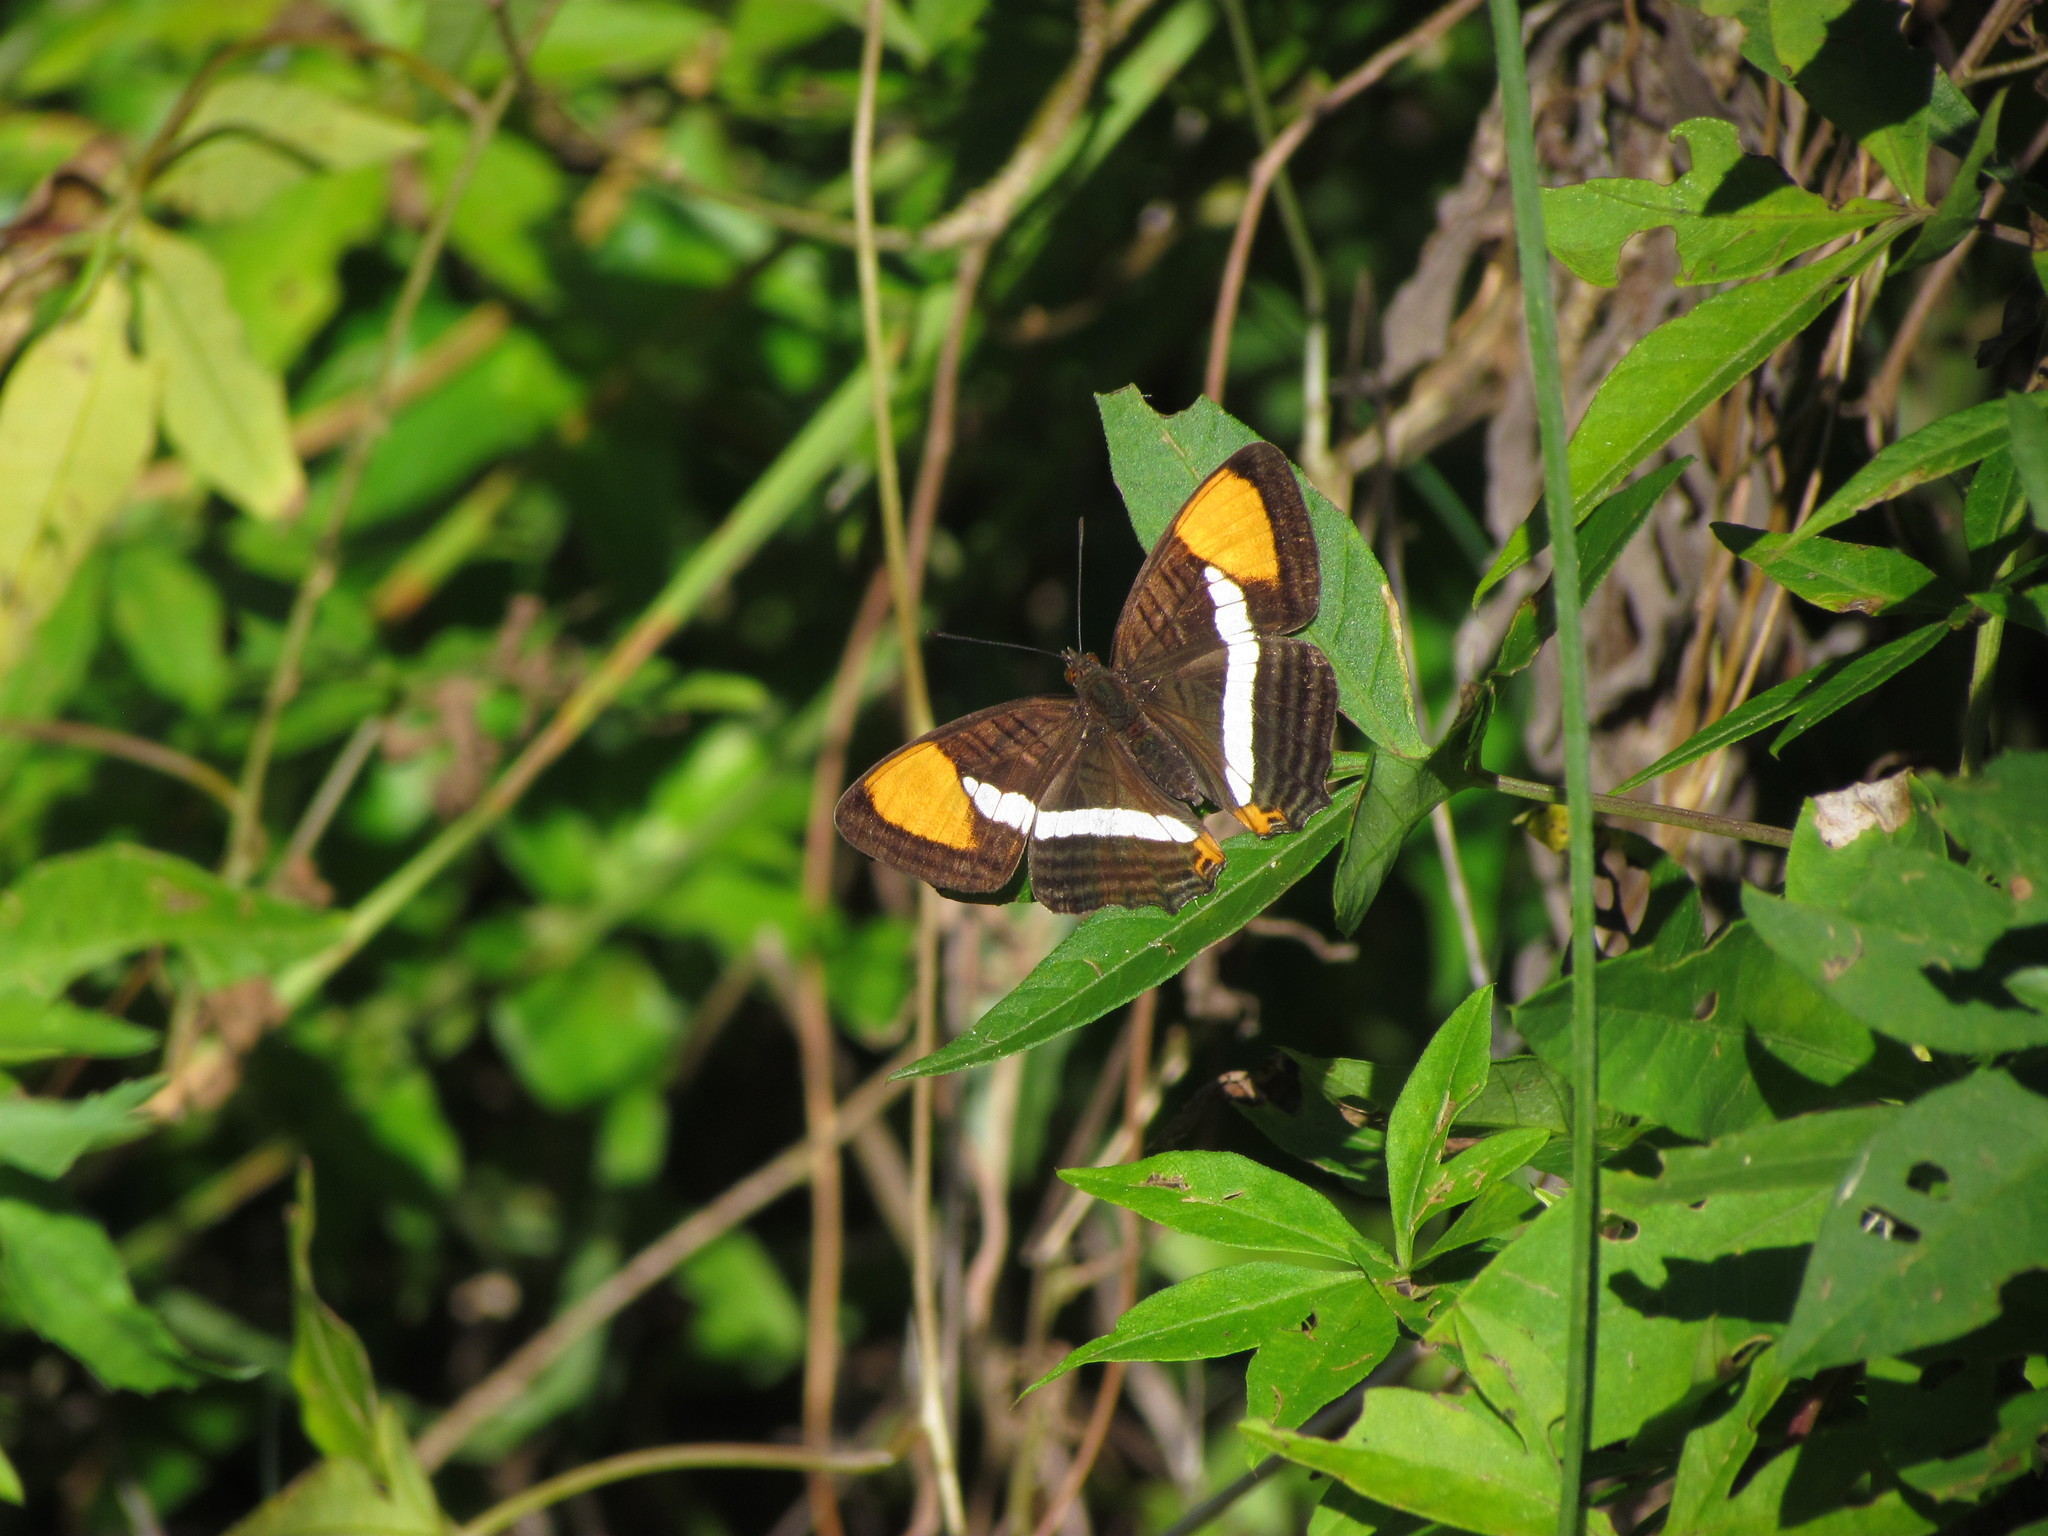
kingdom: Animalia
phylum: Arthropoda
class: Insecta
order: Lepidoptera
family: Nymphalidae
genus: Limenitis
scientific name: Limenitis syma
